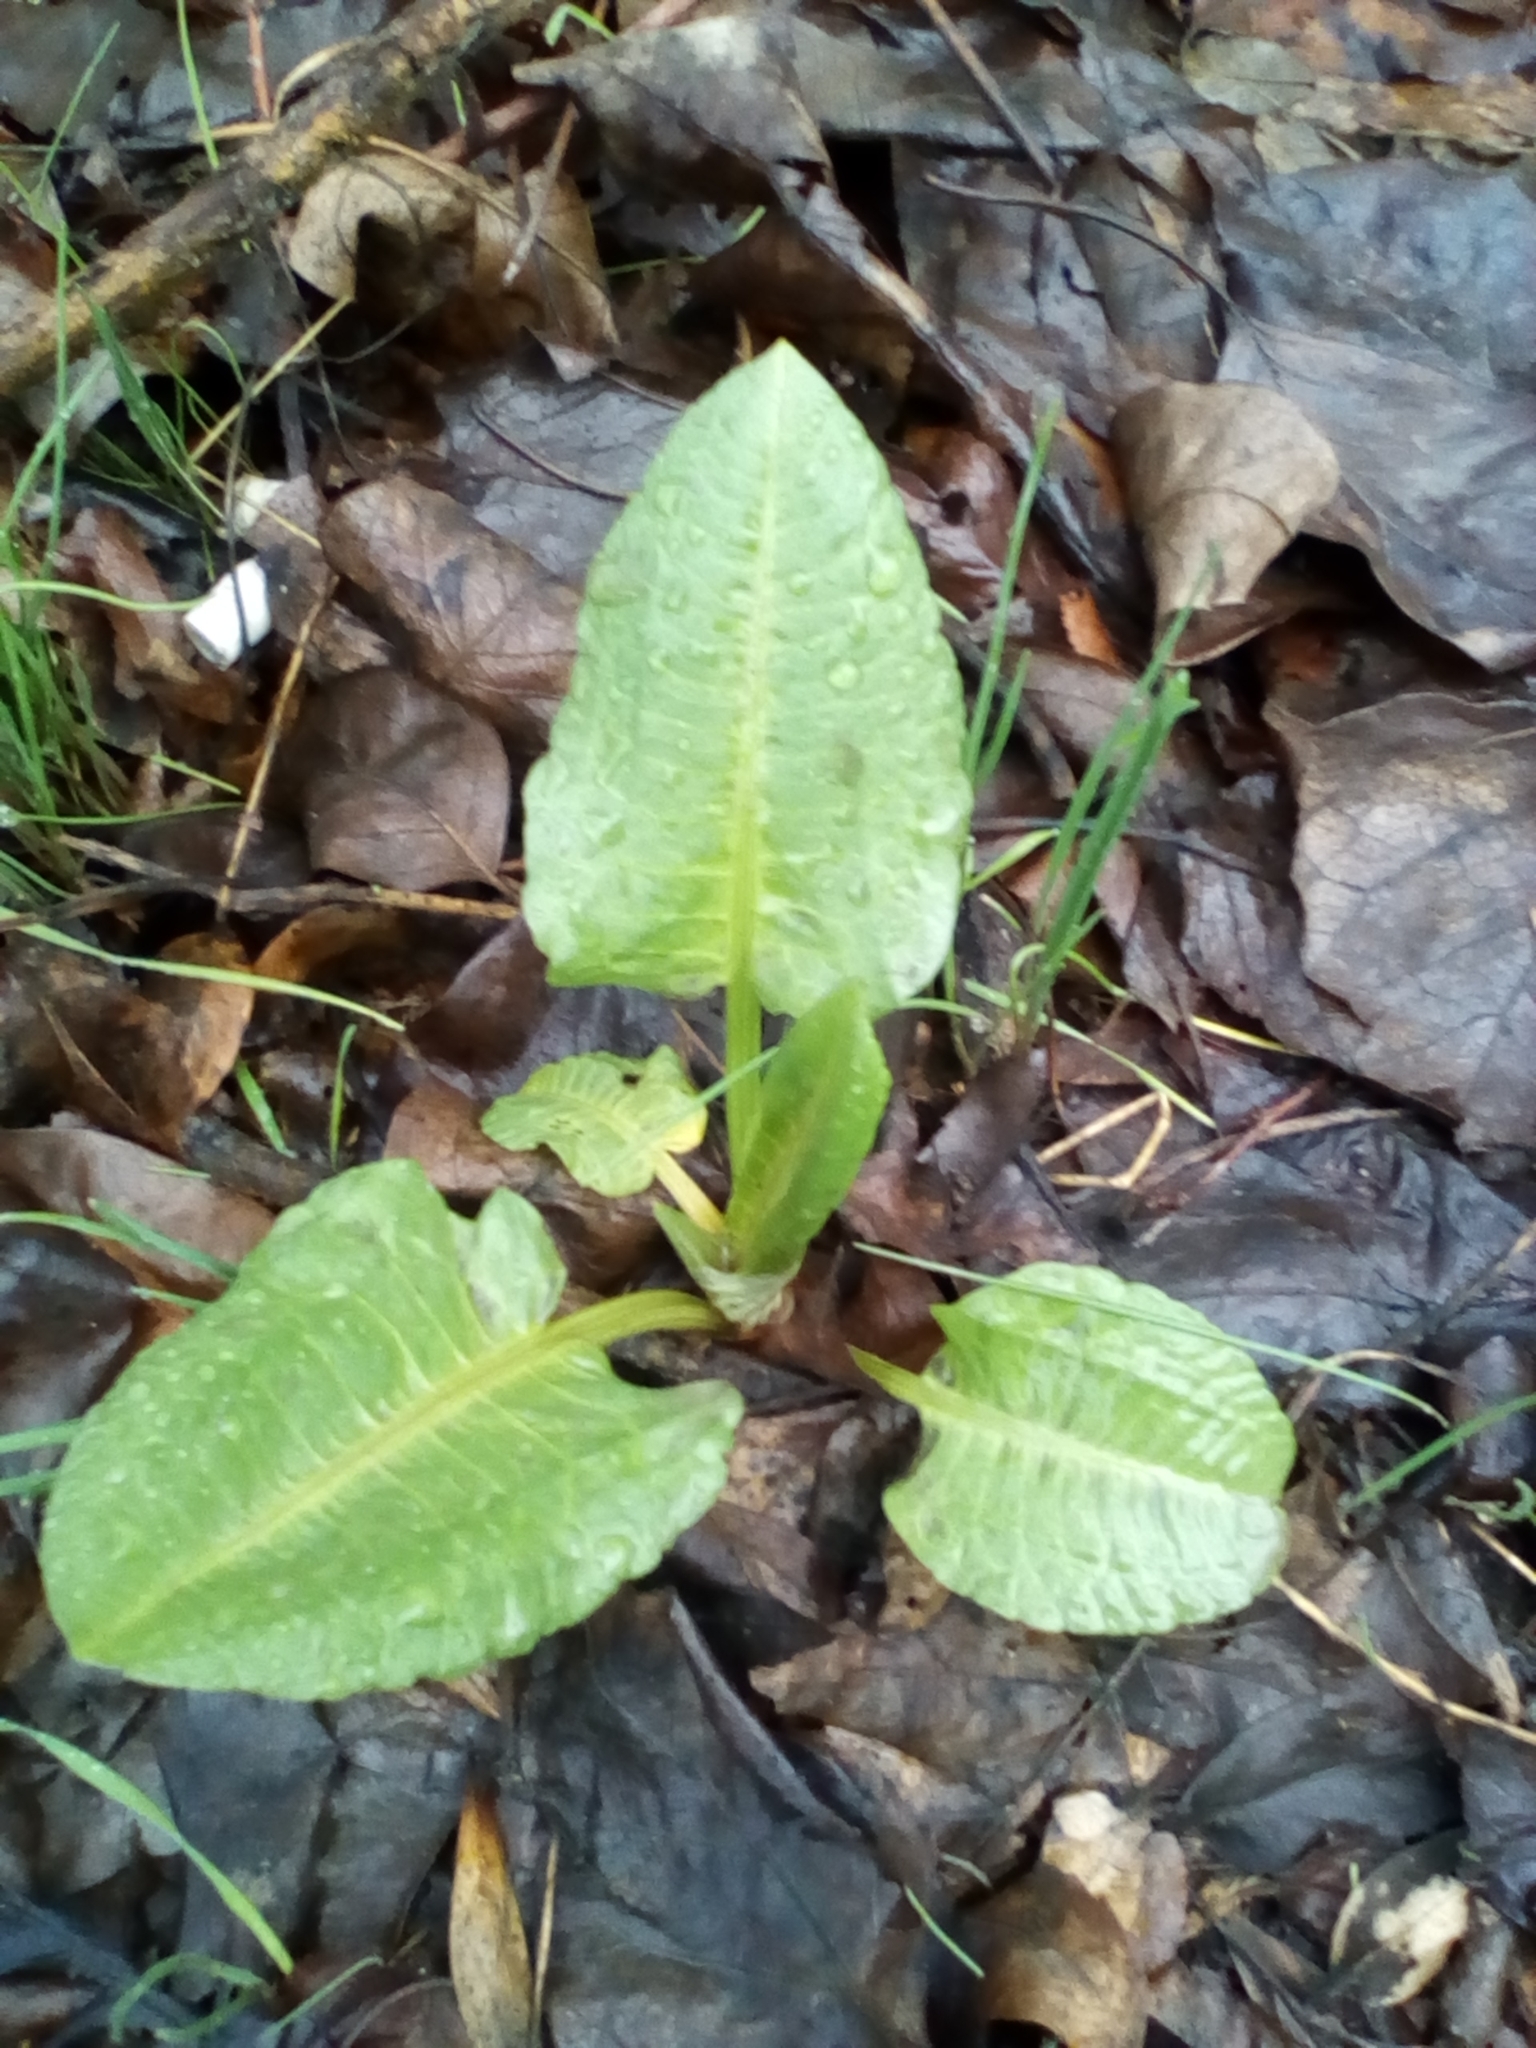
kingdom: Plantae
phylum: Tracheophyta
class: Magnoliopsida
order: Caryophyllales
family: Polygonaceae
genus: Rumex
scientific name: Rumex obtusifolius
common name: Bitter dock
